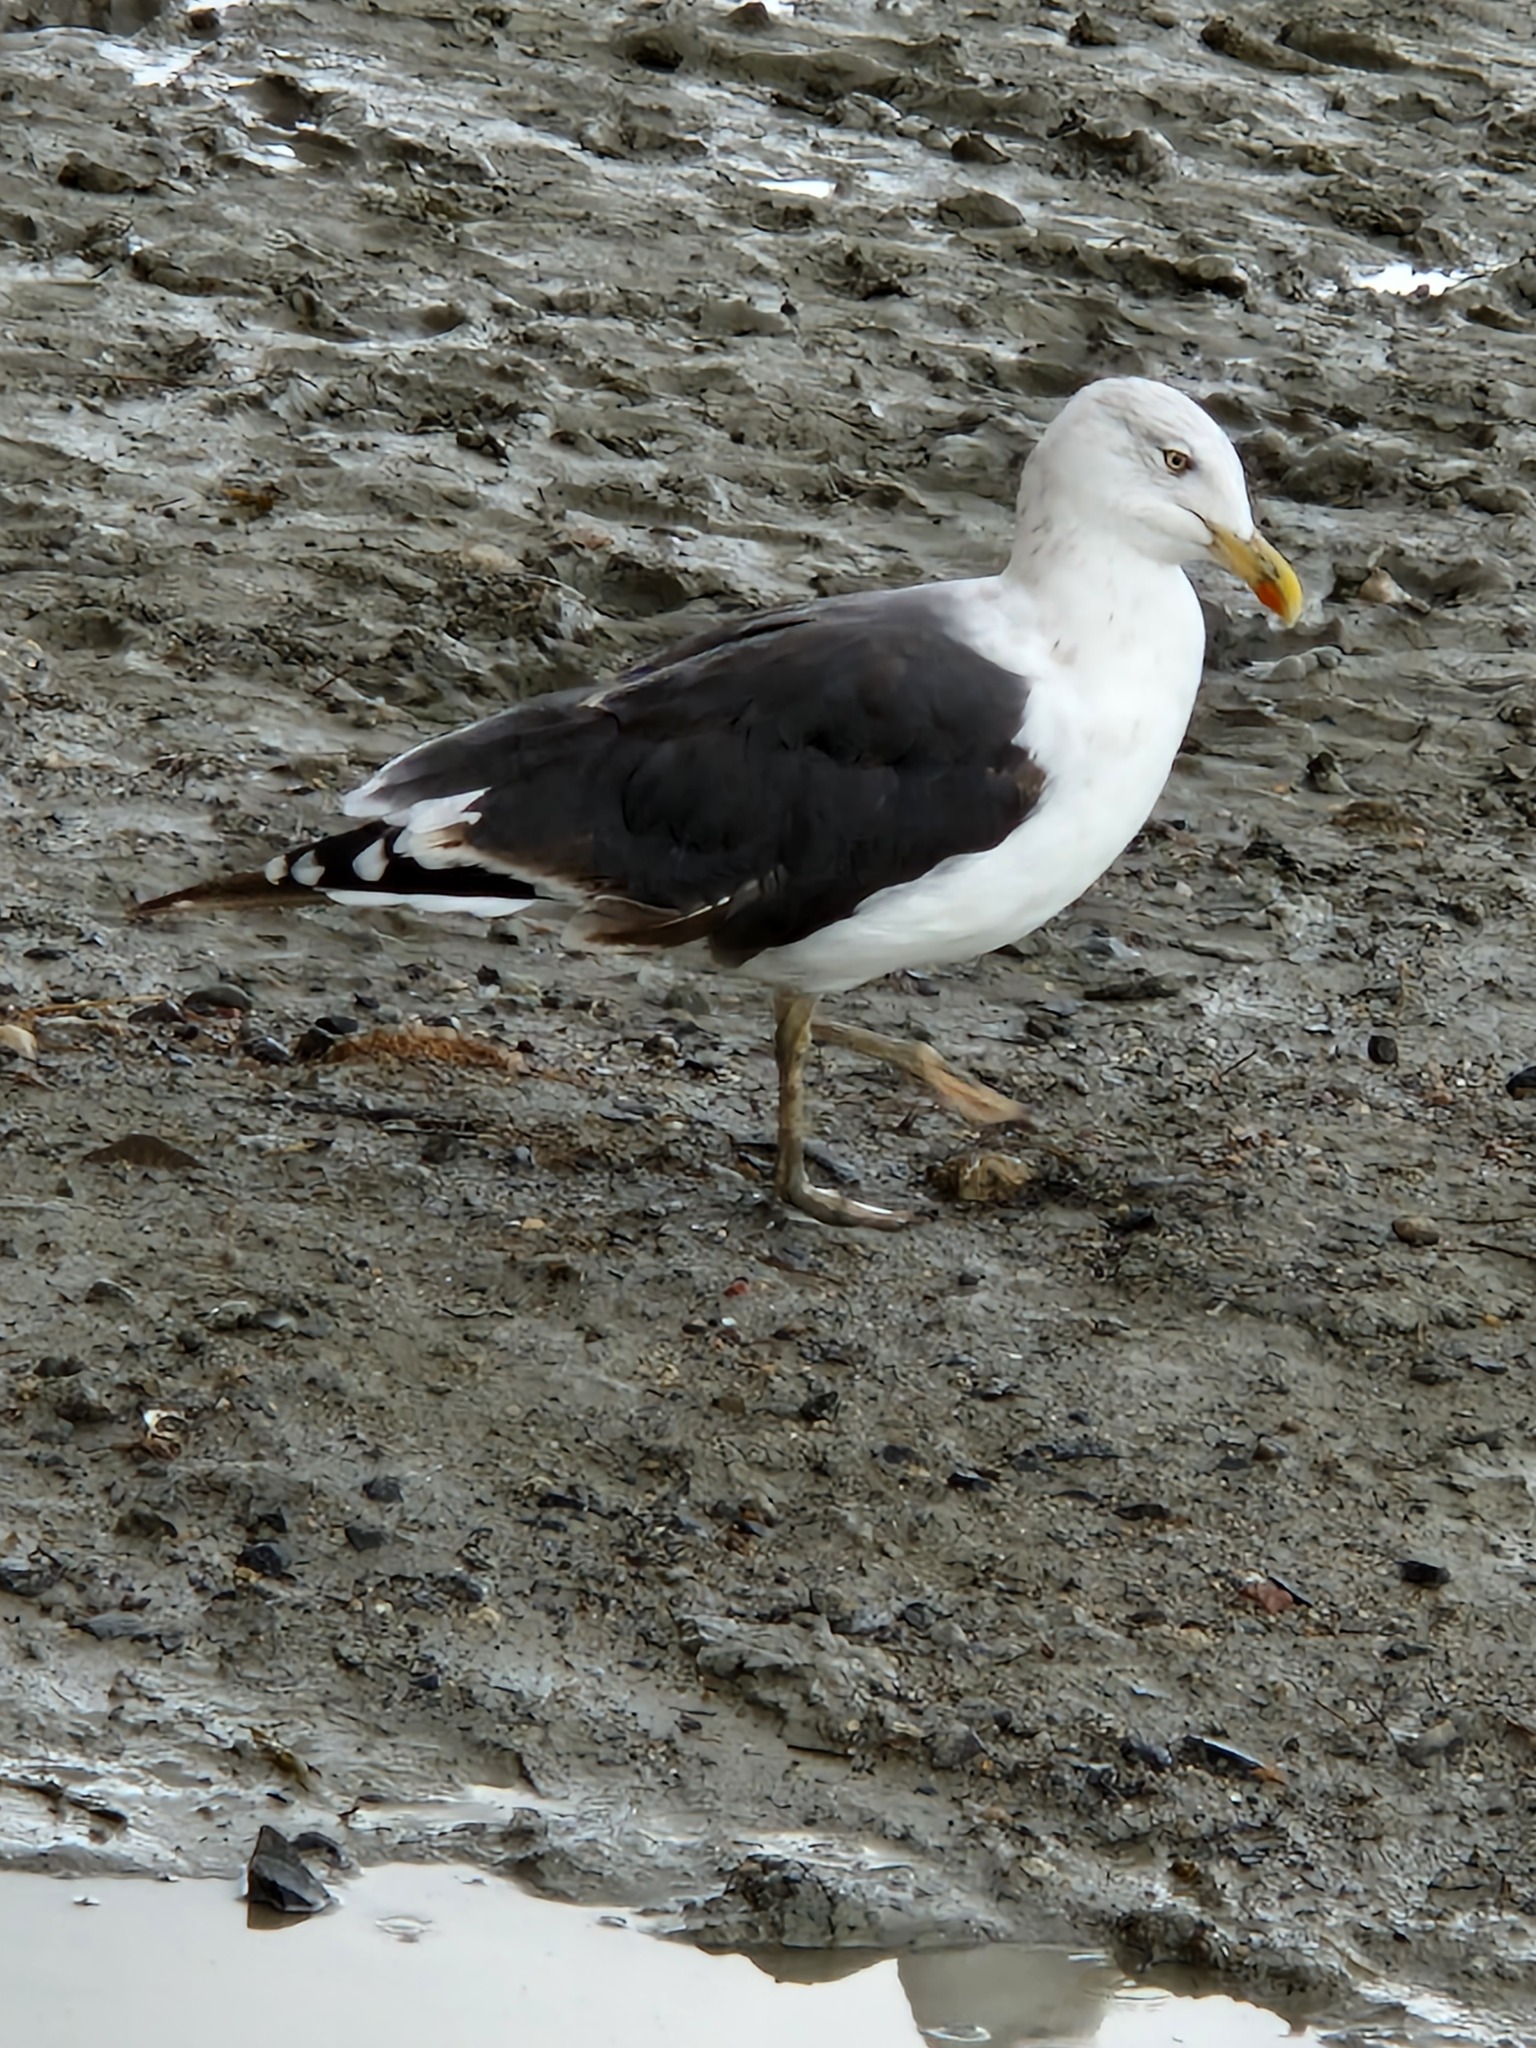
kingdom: Animalia
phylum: Chordata
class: Aves
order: Charadriiformes
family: Laridae
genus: Larus
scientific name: Larus fuscus
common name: Lesser black-backed gull
